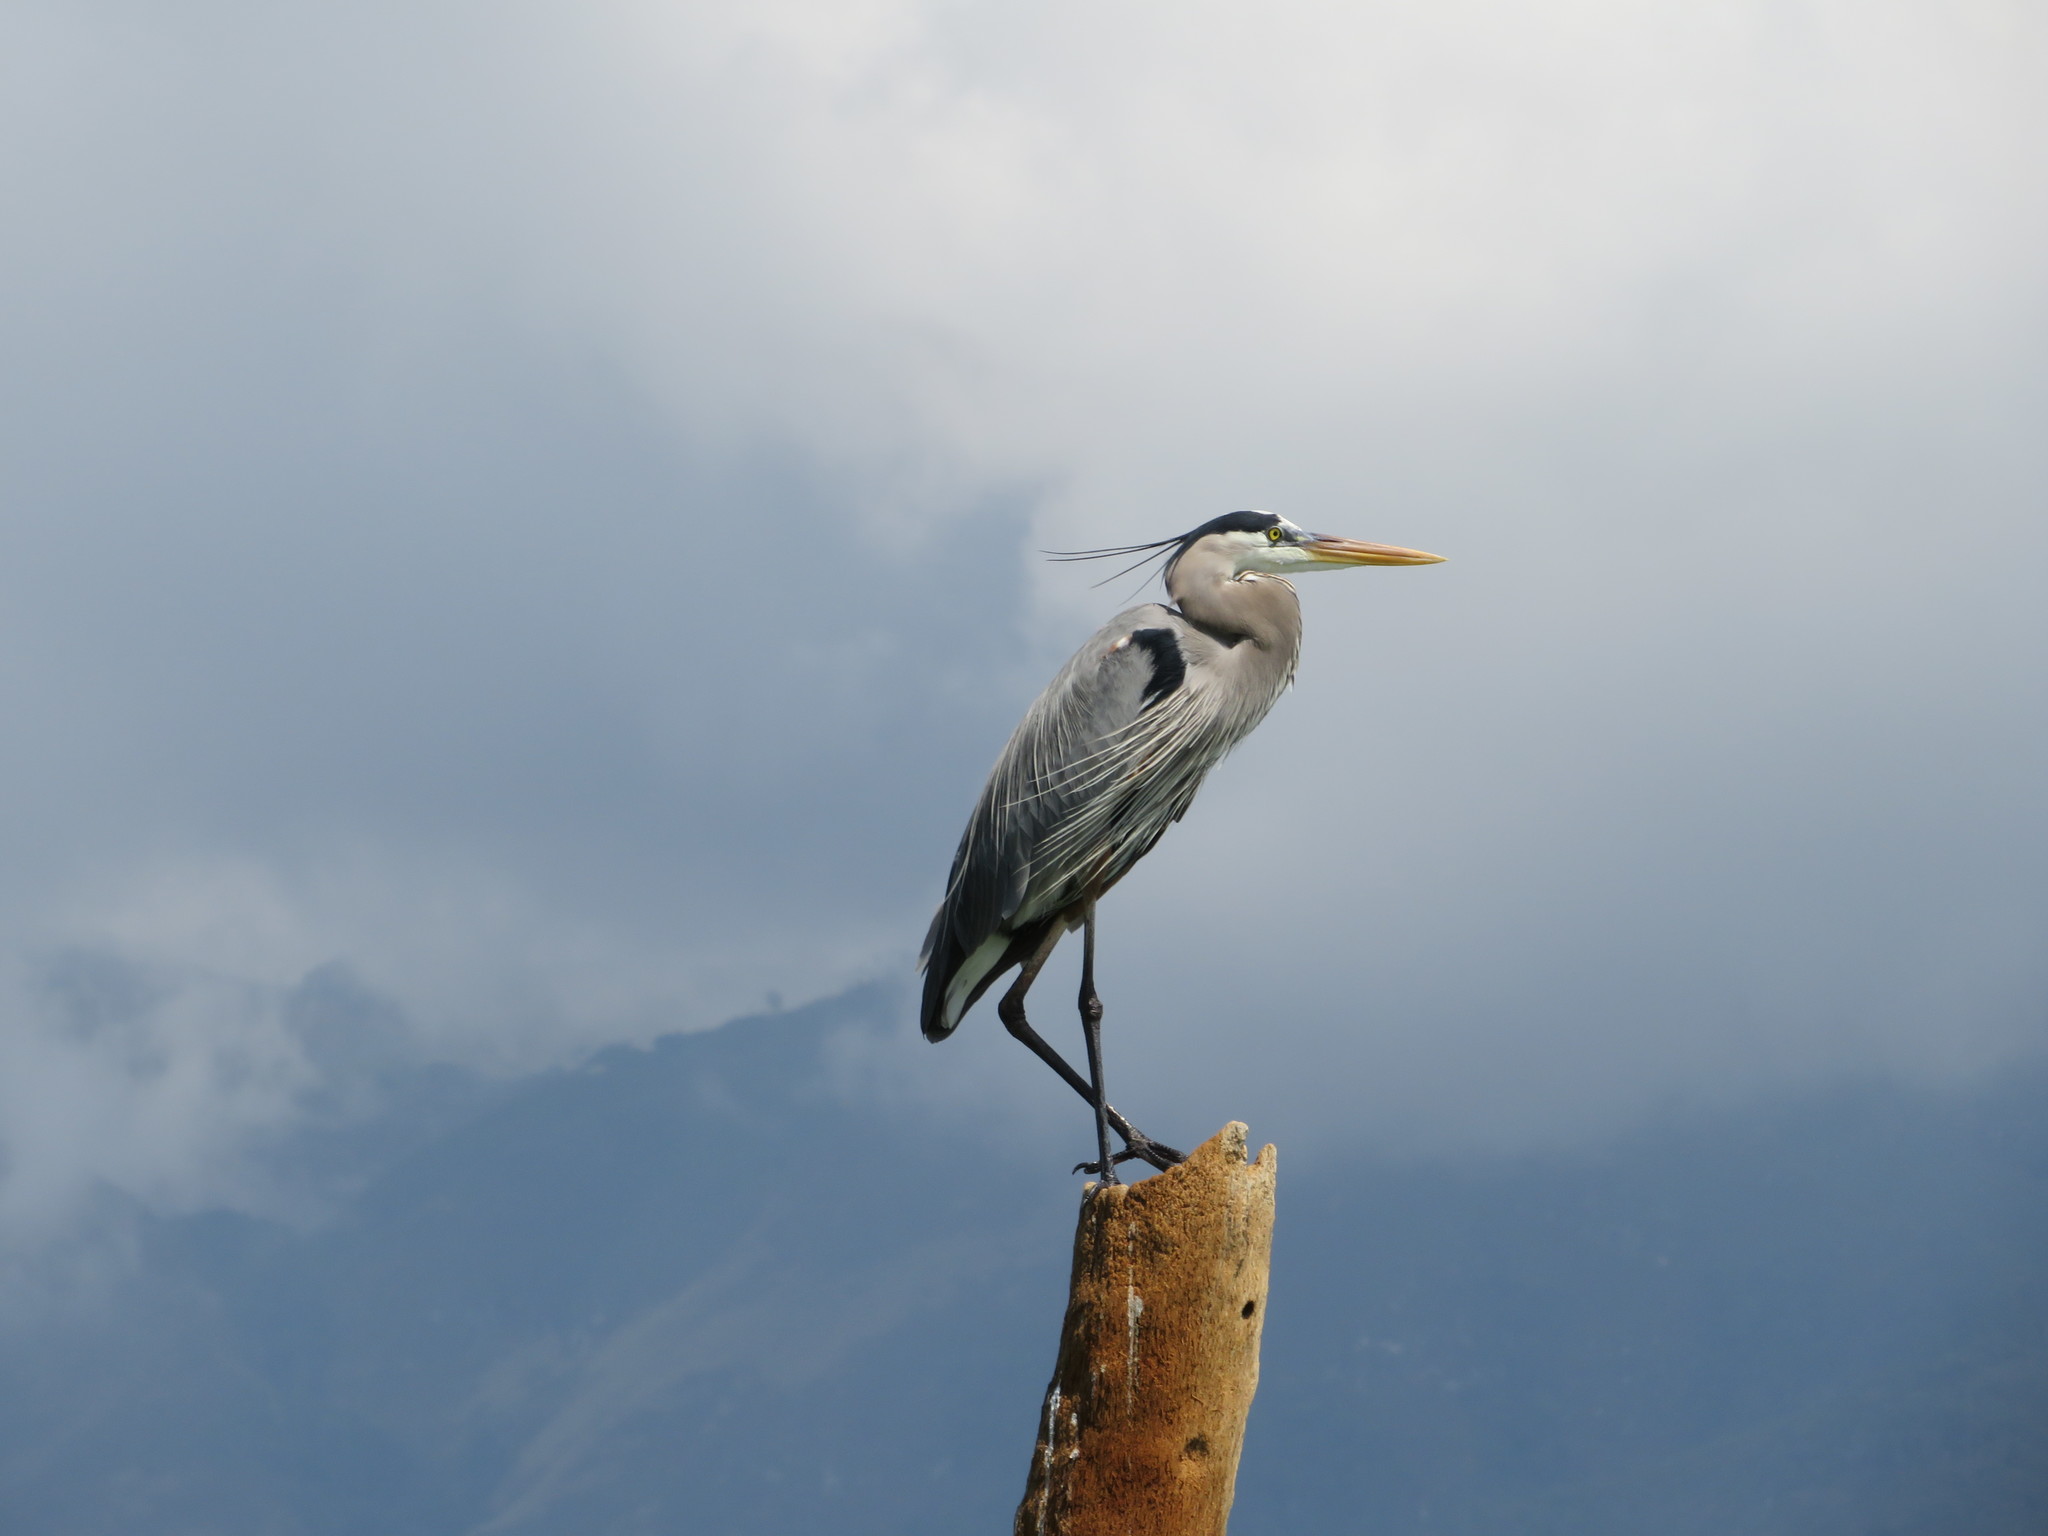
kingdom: Animalia
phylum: Chordata
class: Aves
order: Pelecaniformes
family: Ardeidae
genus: Ardea
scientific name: Ardea herodias
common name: Great blue heron
